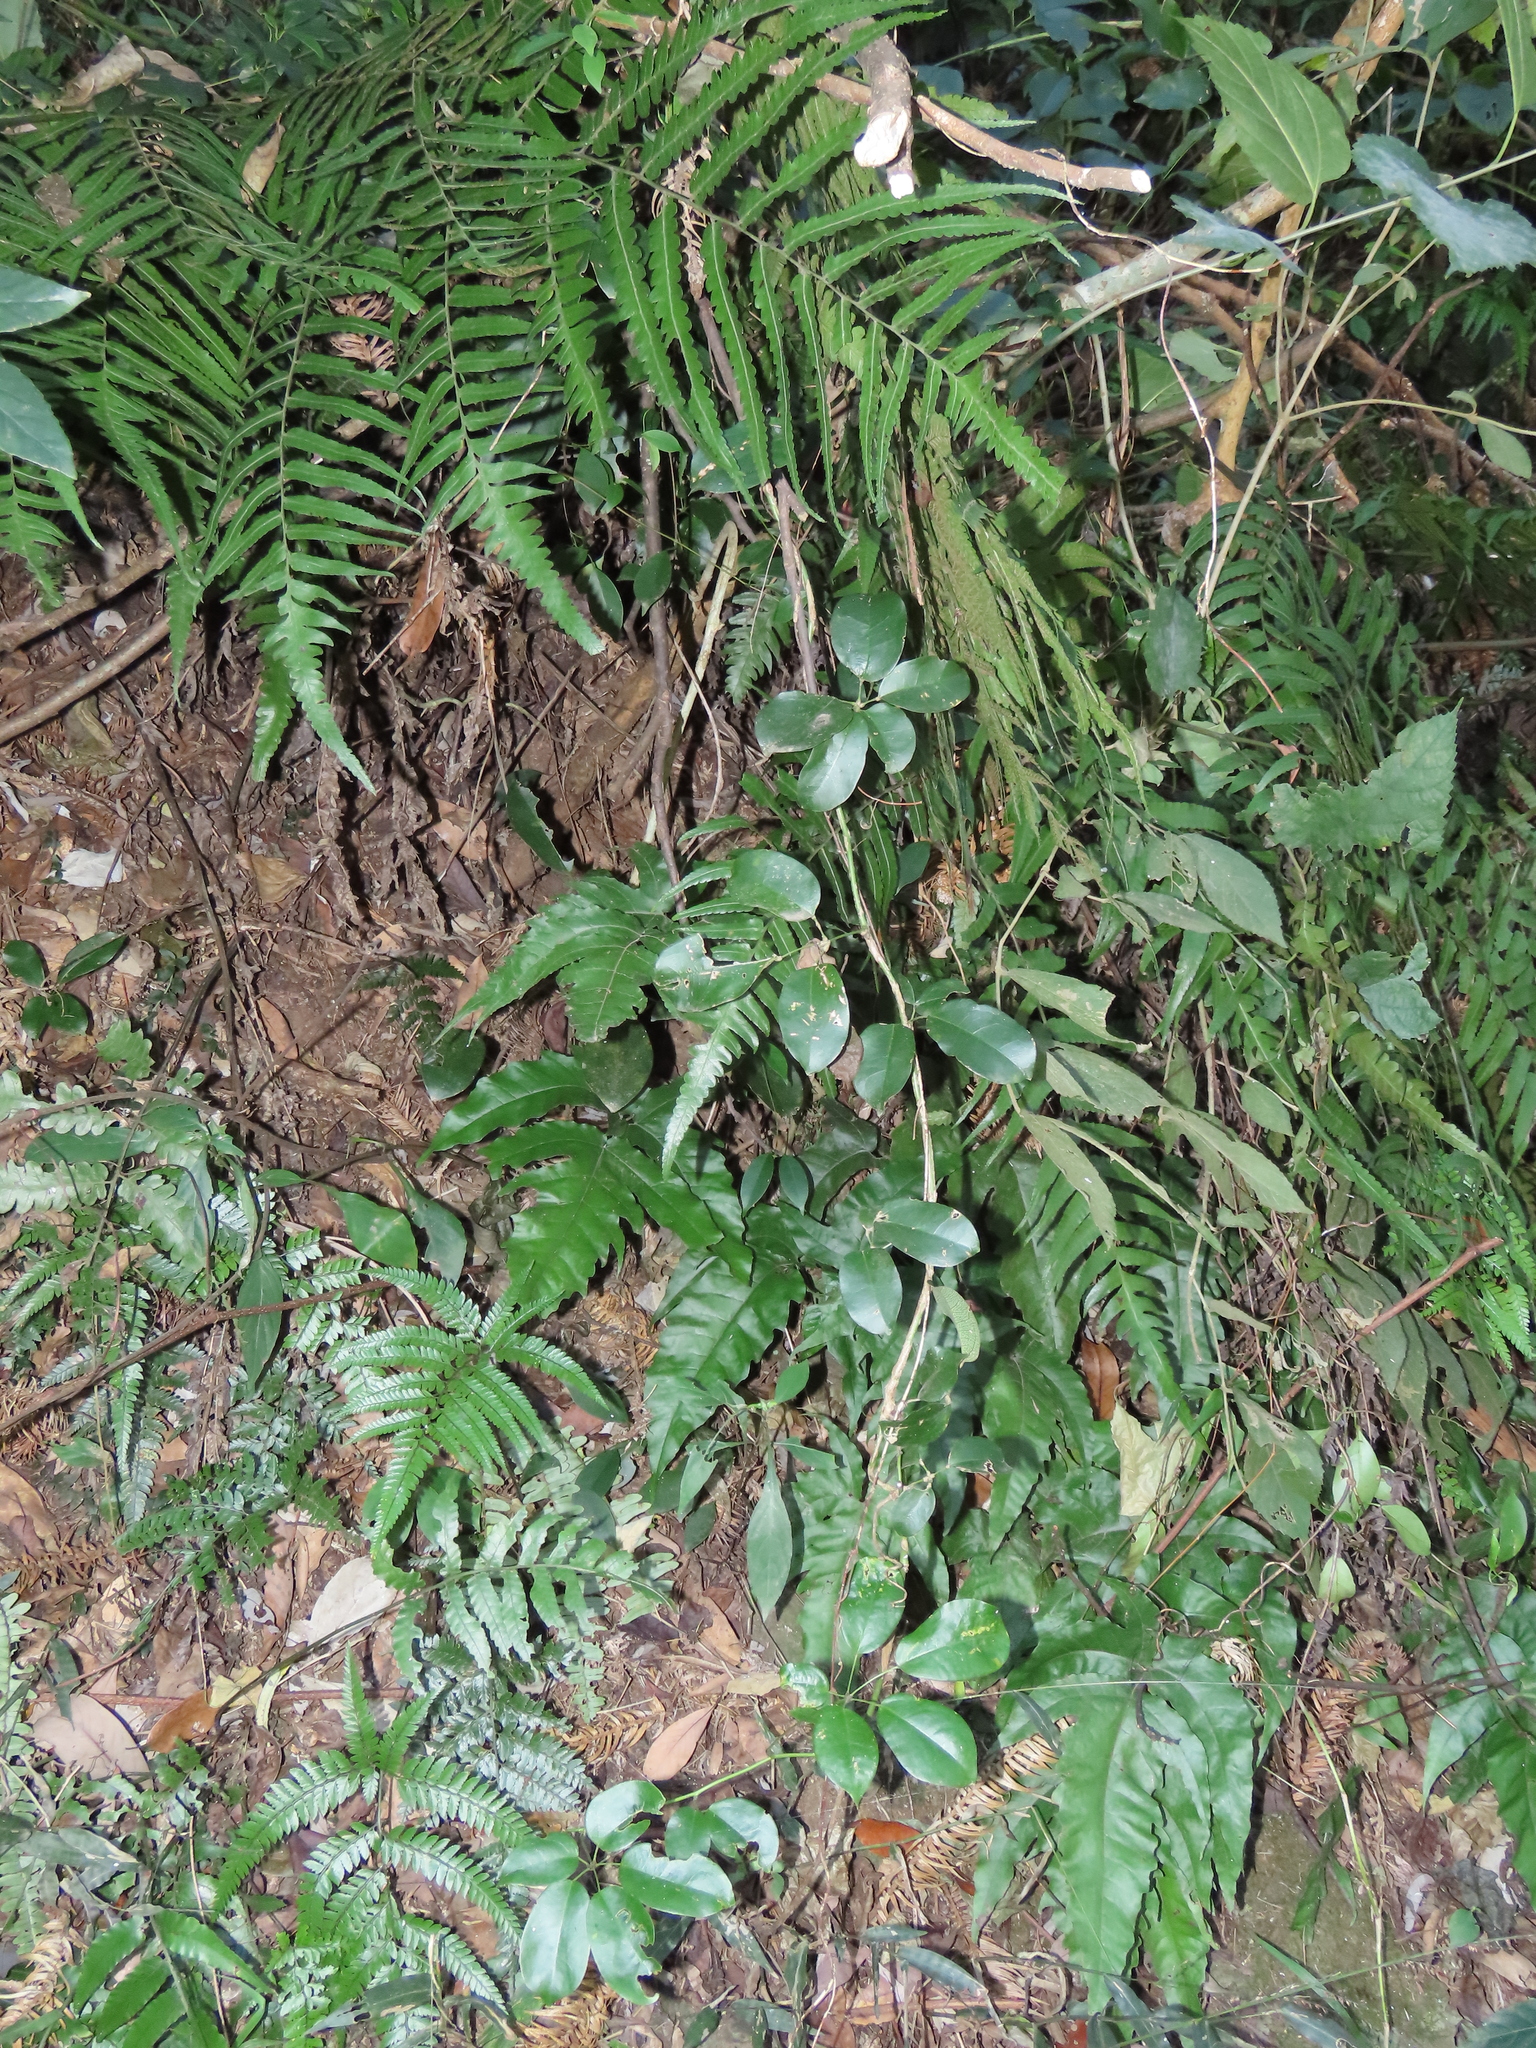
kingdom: Plantae
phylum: Tracheophyta
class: Magnoliopsida
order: Ranunculales
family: Lardizabalaceae
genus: Stauntonia
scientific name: Stauntonia obovatifoliola
